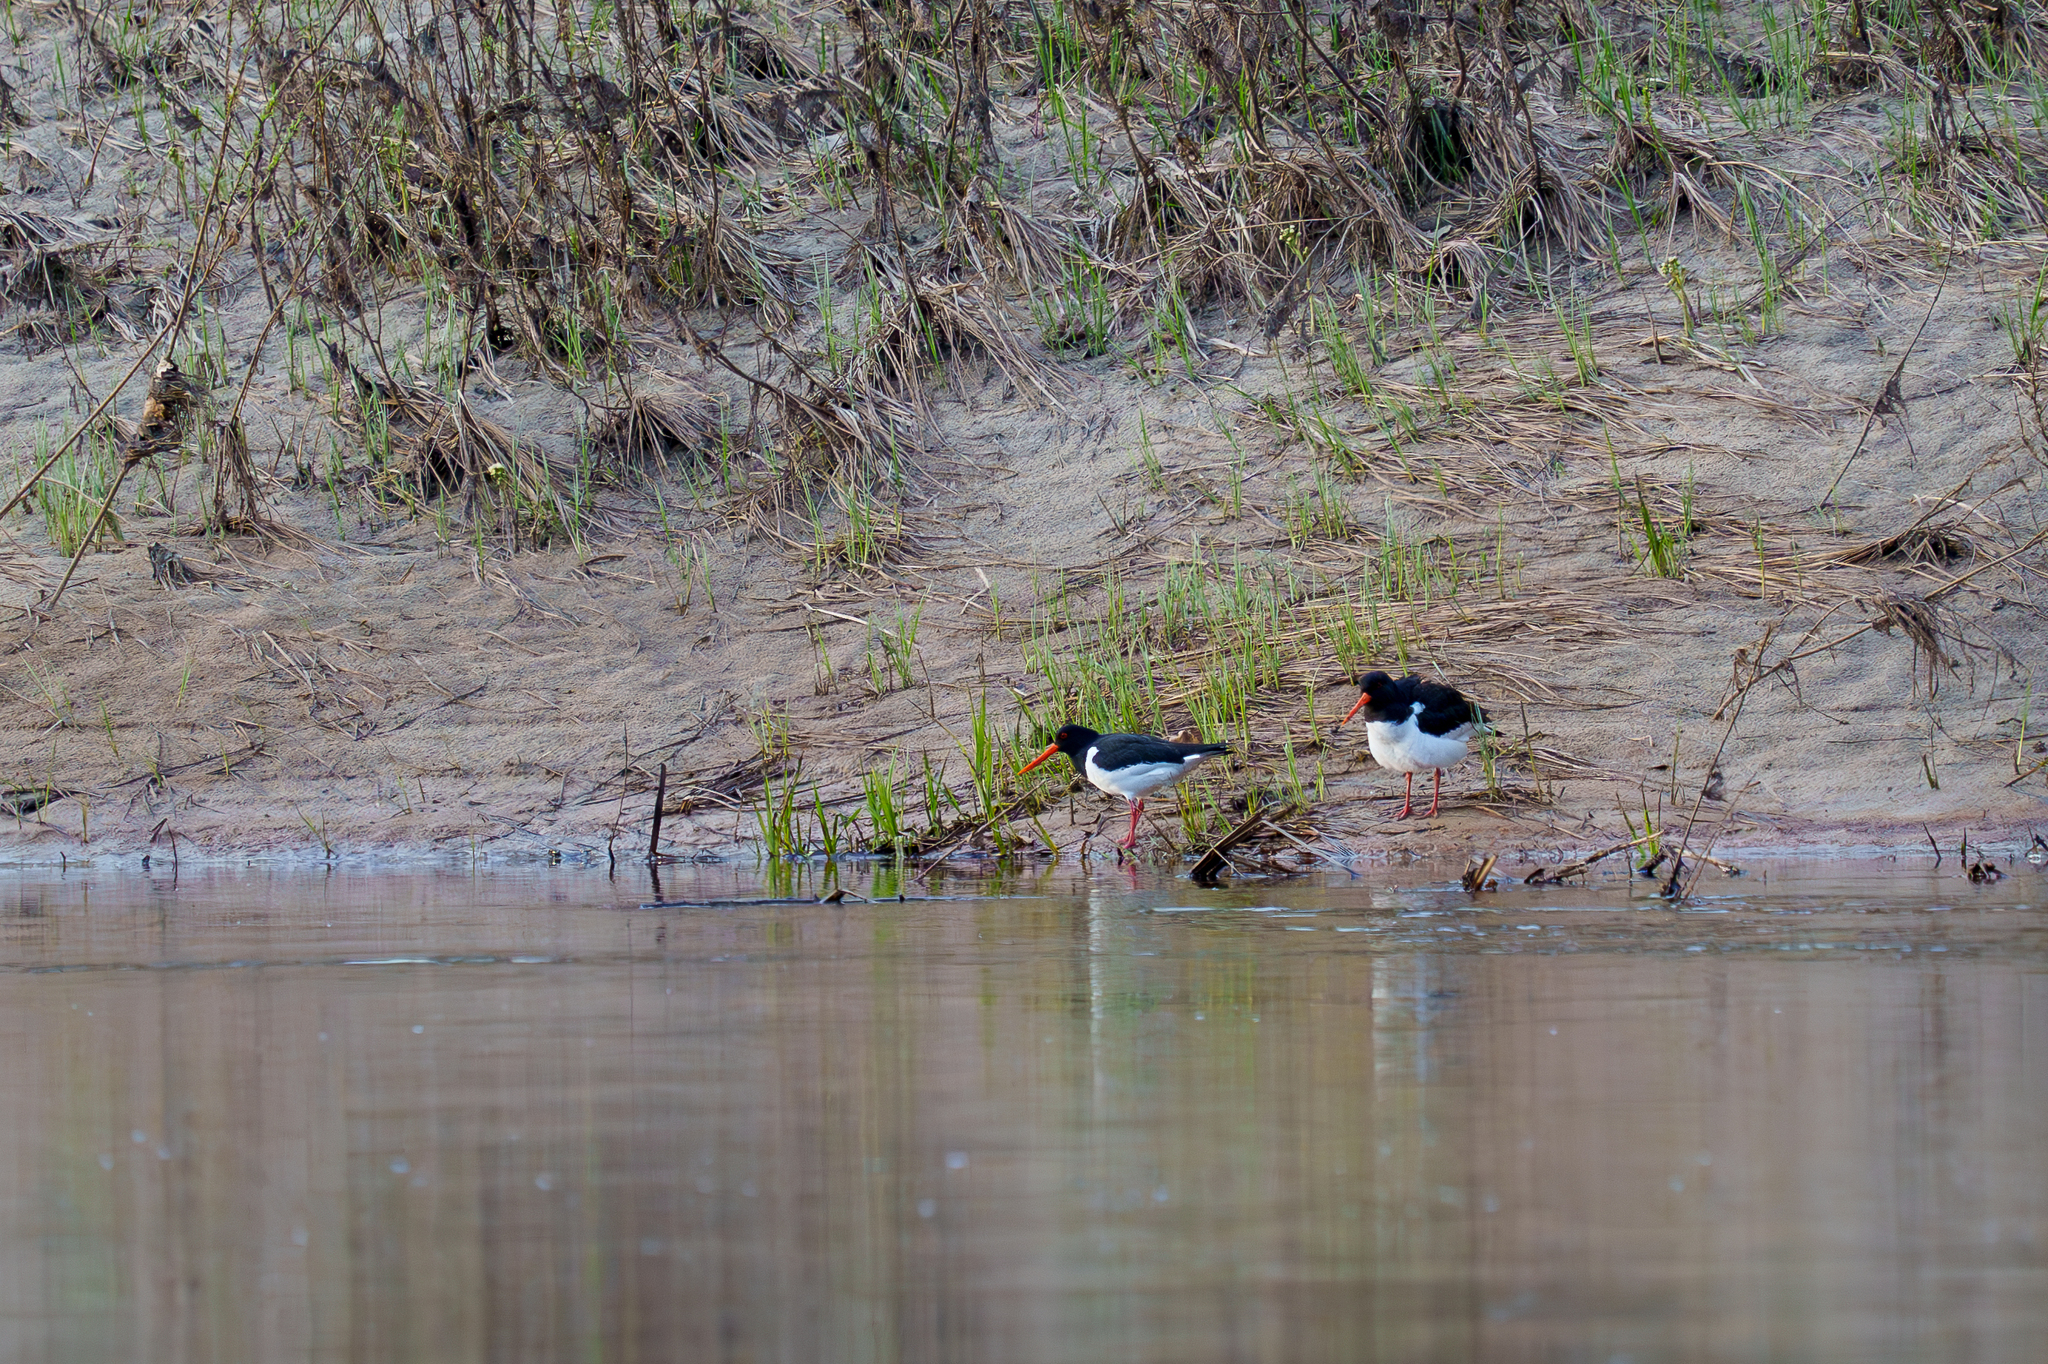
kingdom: Animalia
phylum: Chordata
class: Aves
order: Charadriiformes
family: Haematopodidae
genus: Haematopus
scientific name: Haematopus ostralegus
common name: Eurasian oystercatcher
